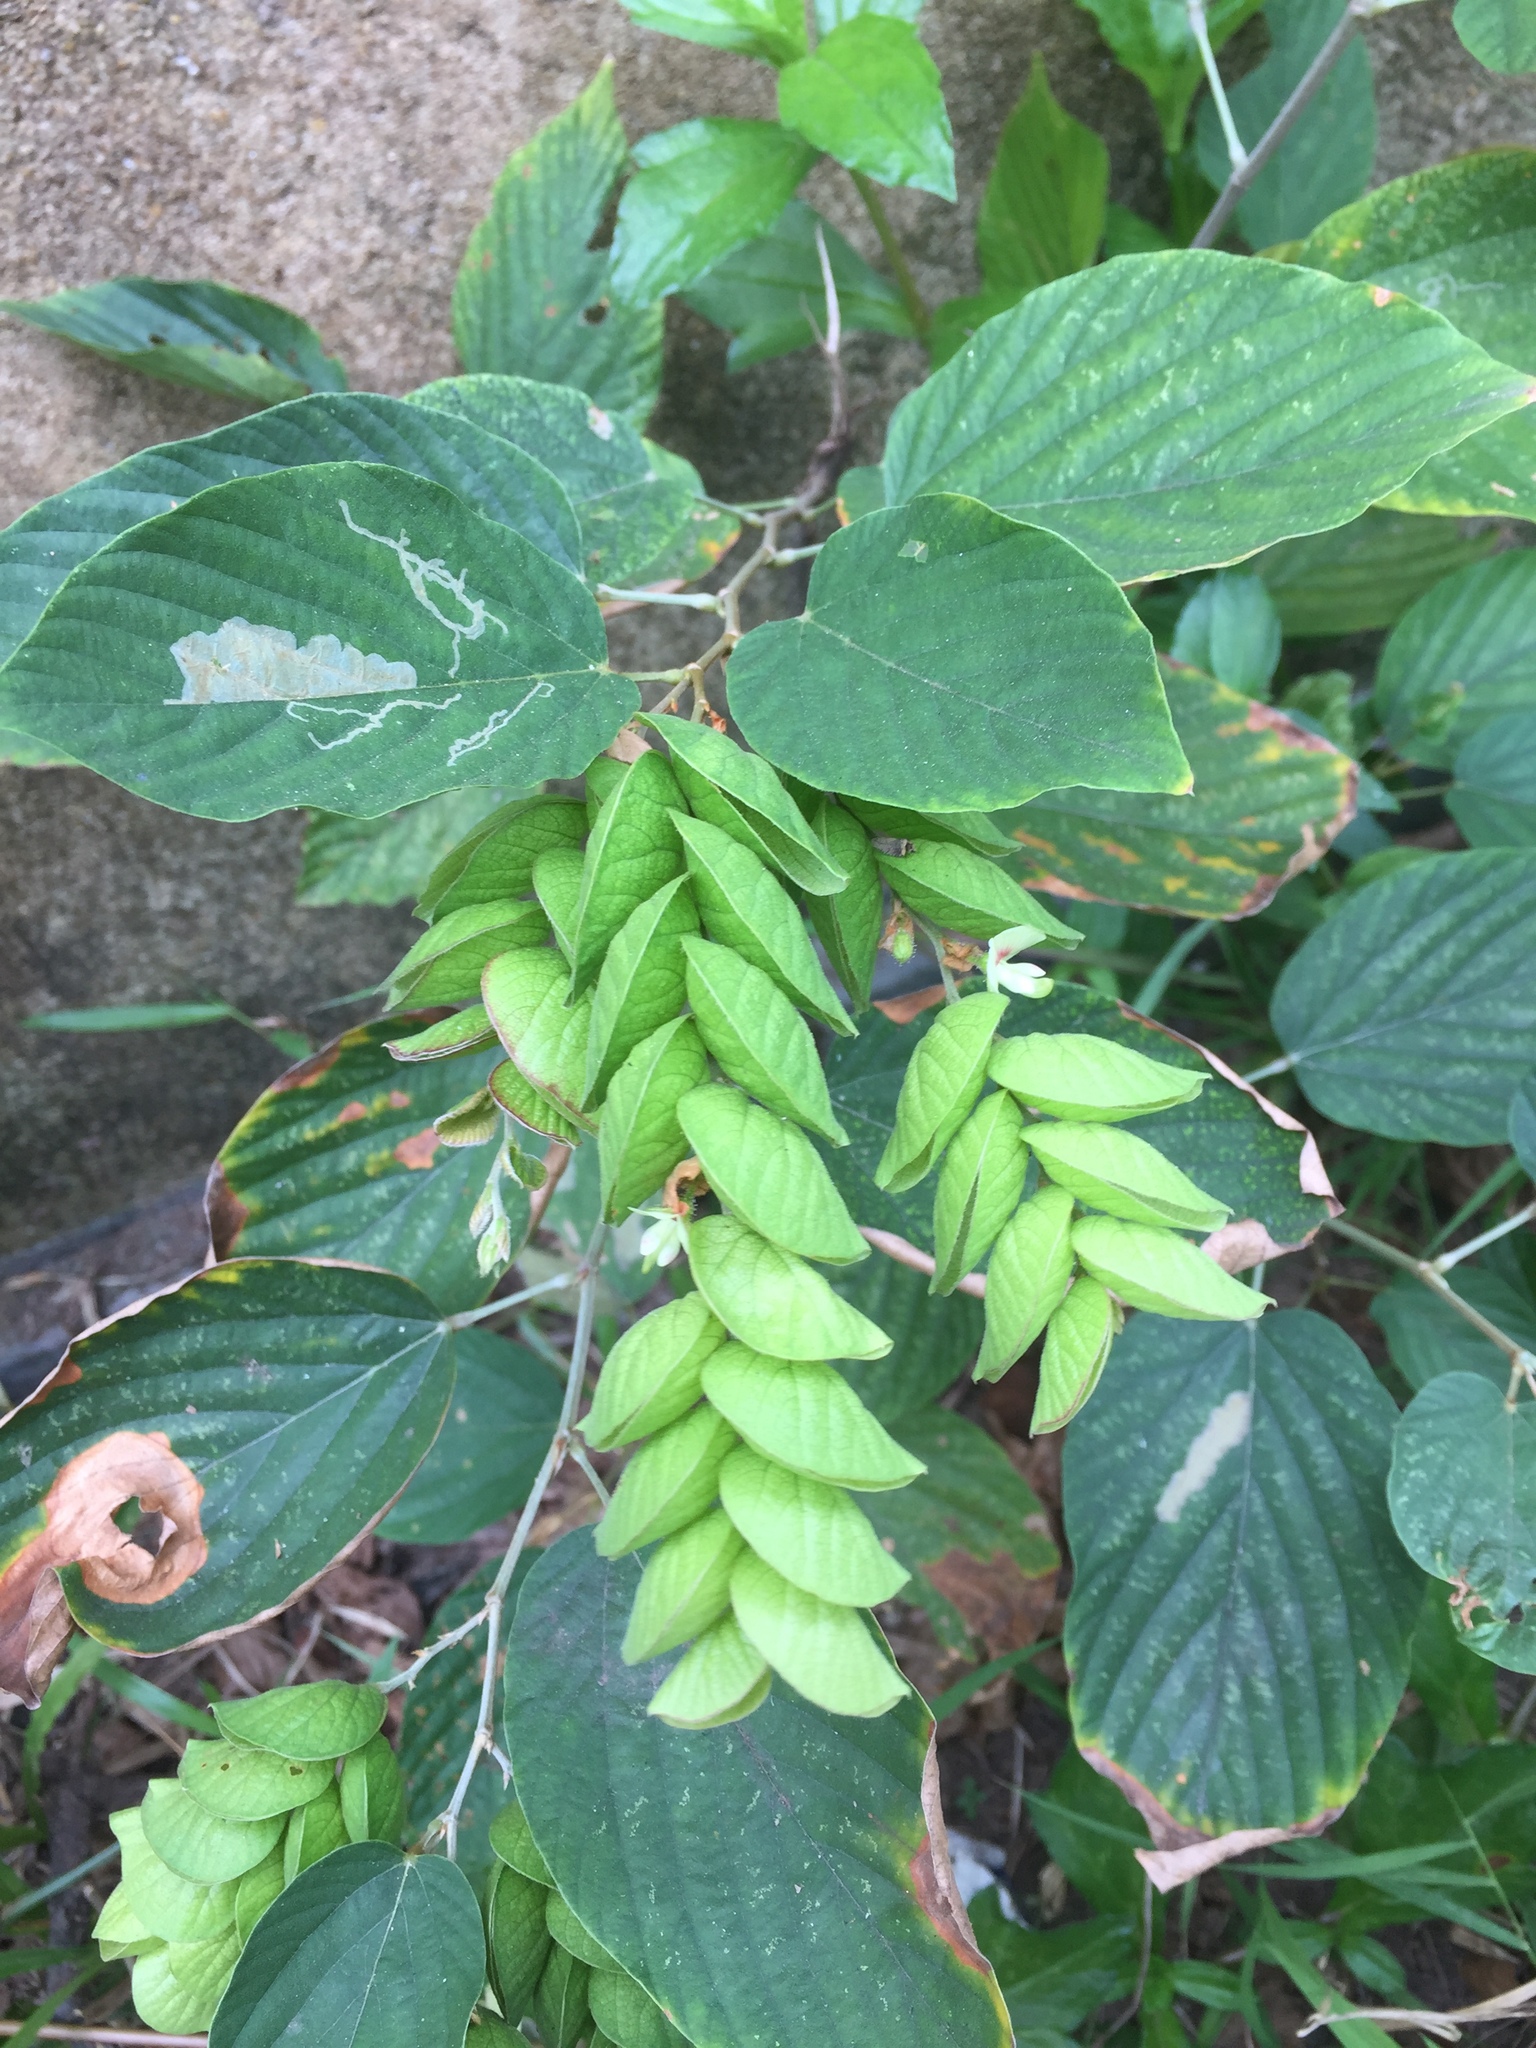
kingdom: Plantae
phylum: Tracheophyta
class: Magnoliopsida
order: Fabales
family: Fabaceae
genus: Flemingia
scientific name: Flemingia strobilifera
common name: Wild hops
